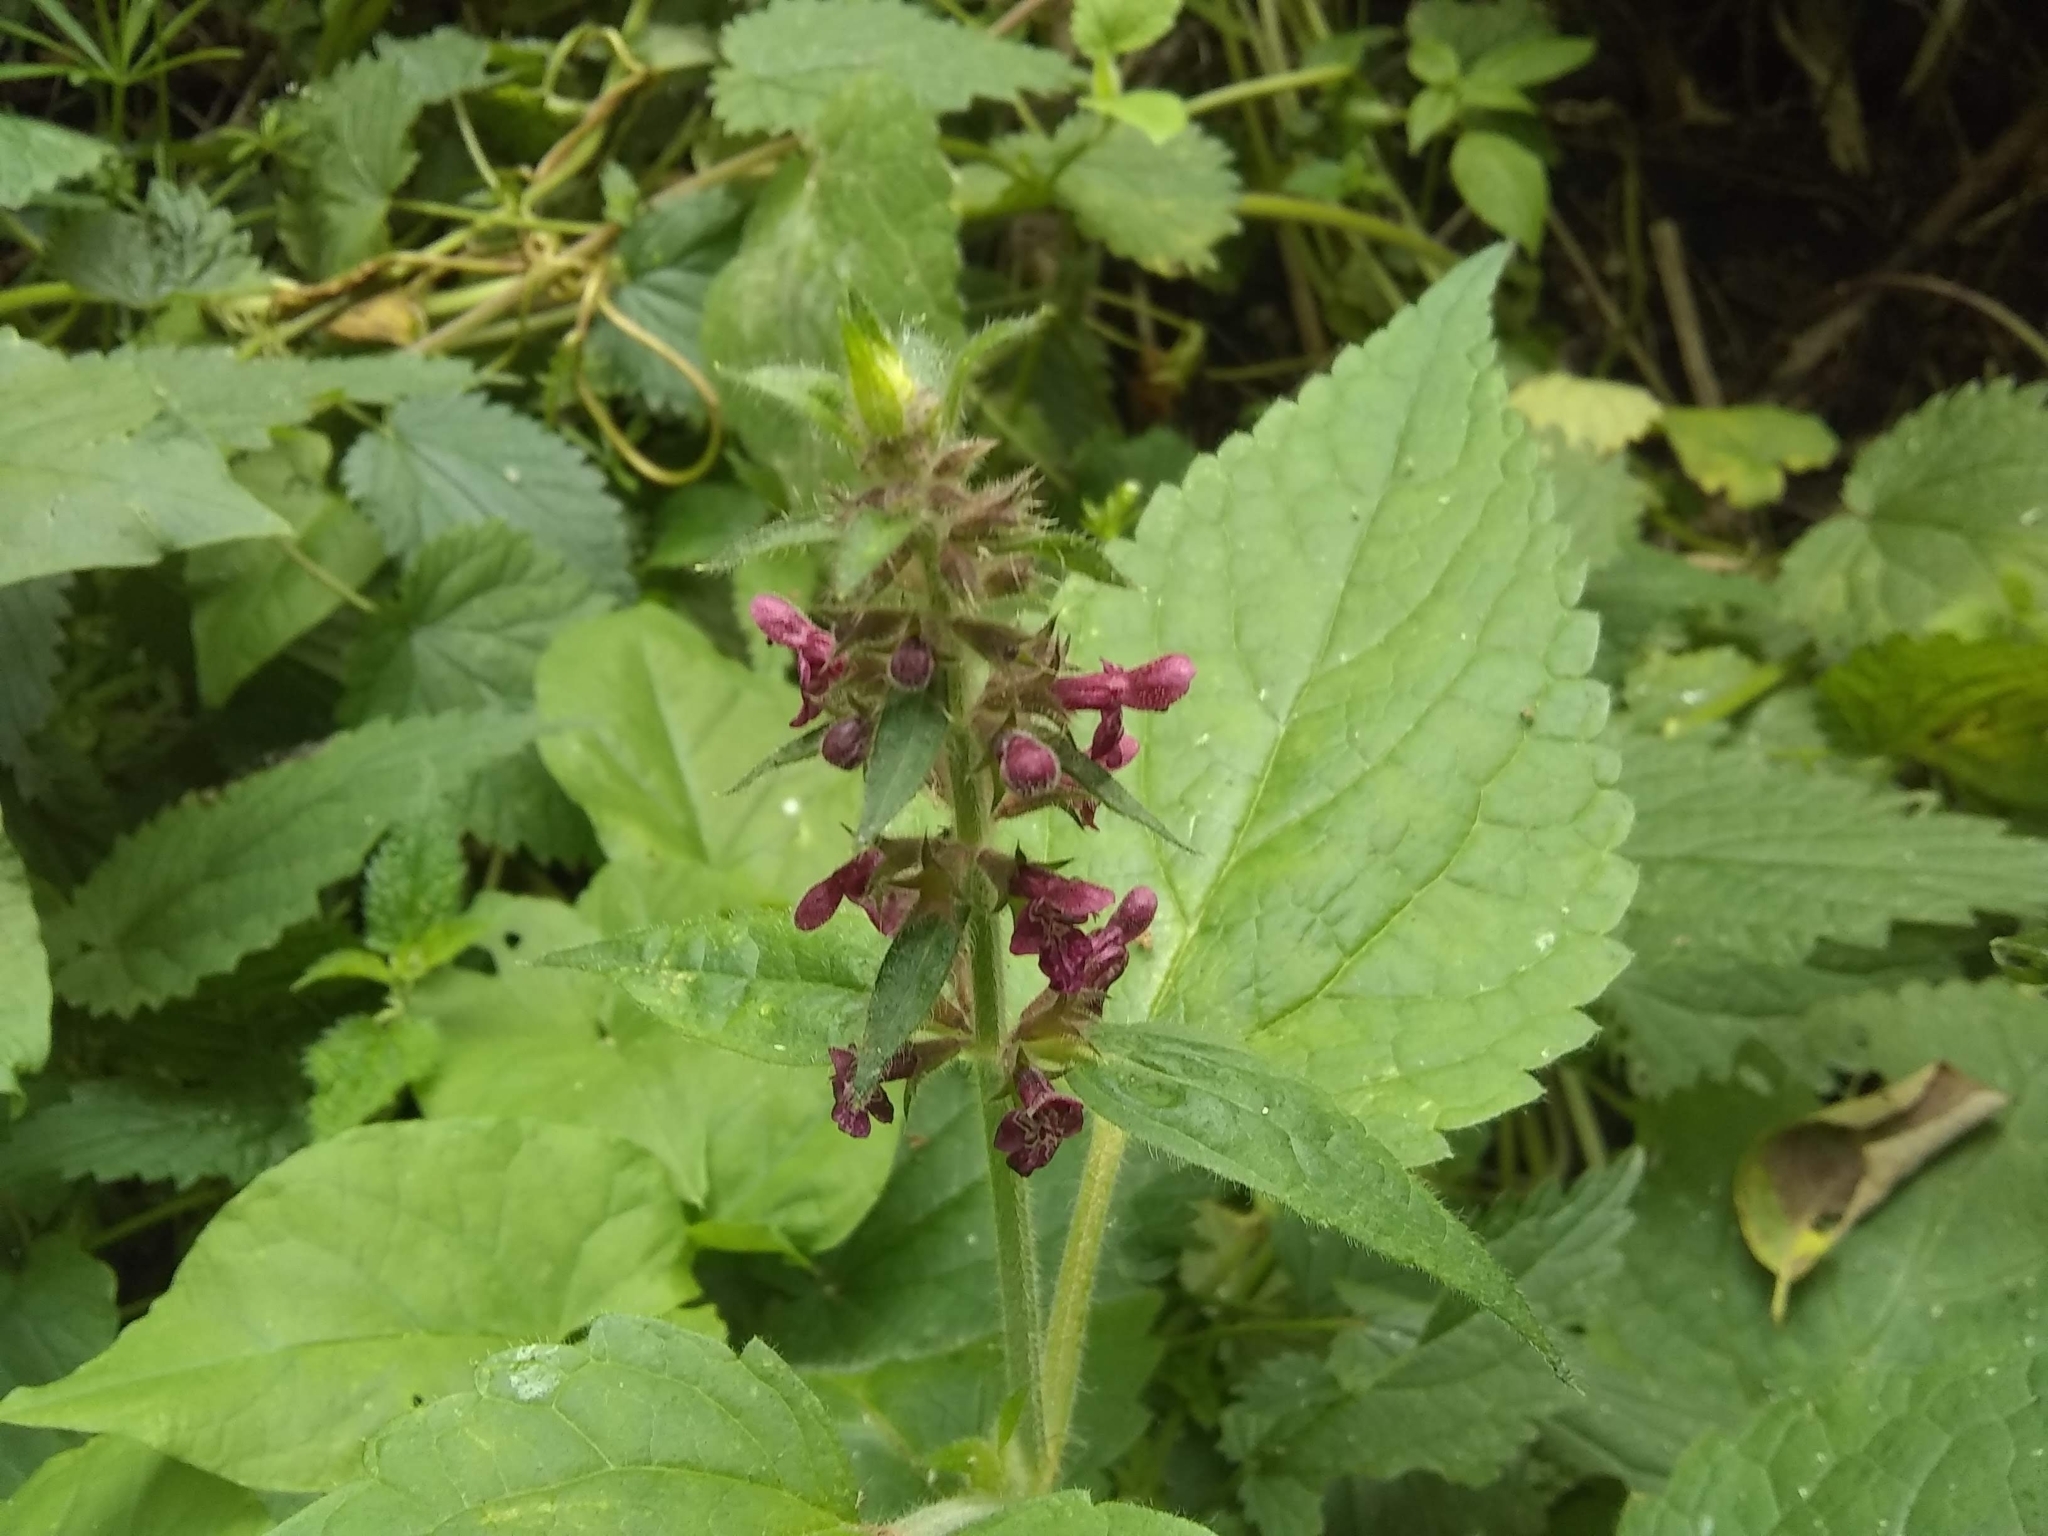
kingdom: Plantae
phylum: Tracheophyta
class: Magnoliopsida
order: Lamiales
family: Lamiaceae
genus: Stachys
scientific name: Stachys sylvatica
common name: Hedge woundwort
